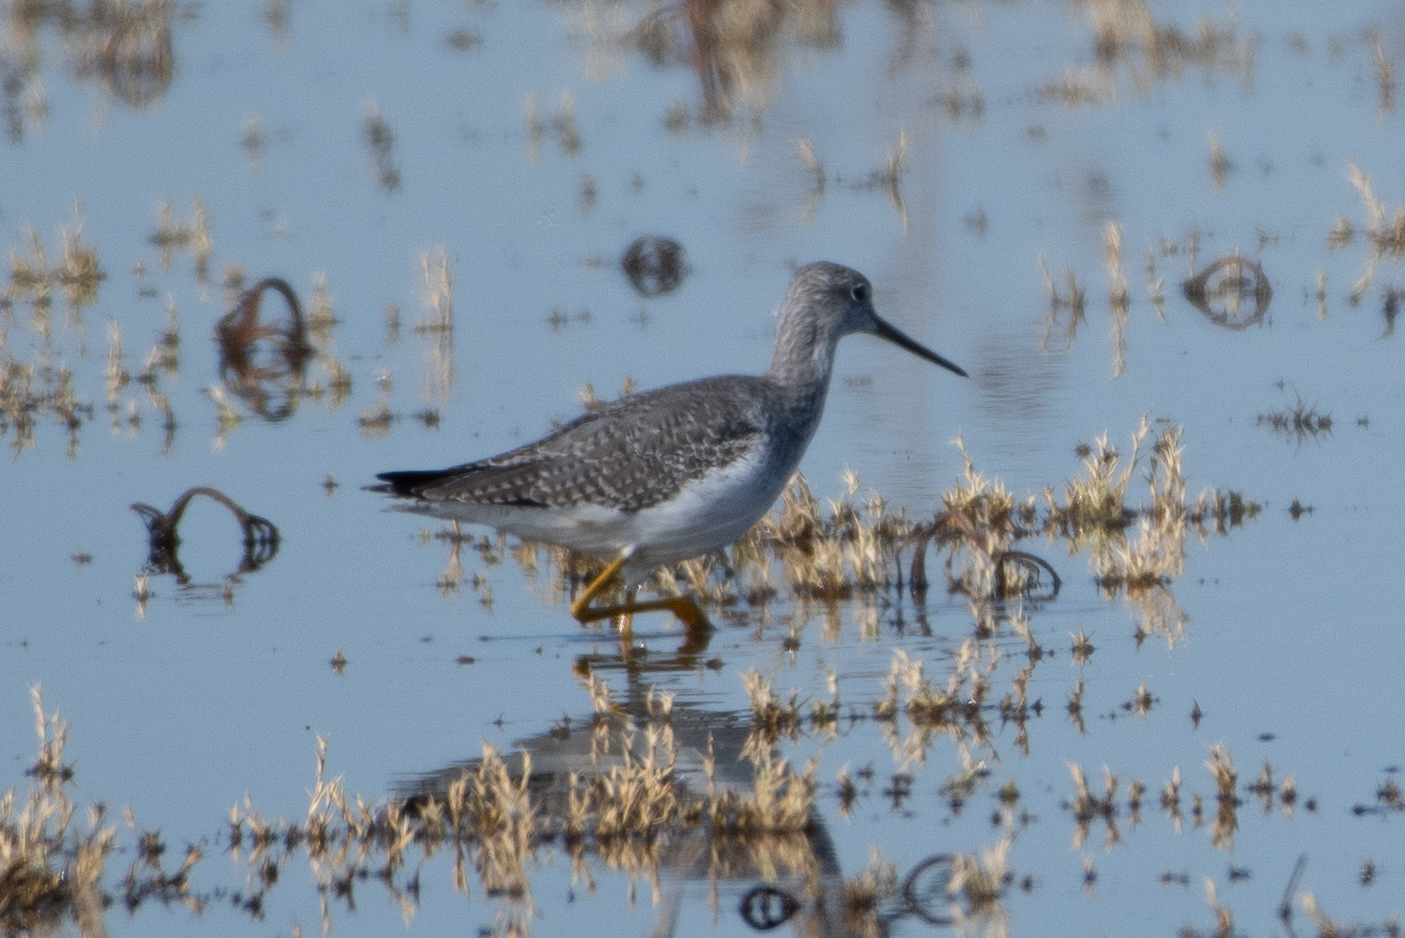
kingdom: Animalia
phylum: Chordata
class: Aves
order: Charadriiformes
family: Scolopacidae
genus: Tringa
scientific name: Tringa melanoleuca
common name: Greater yellowlegs
